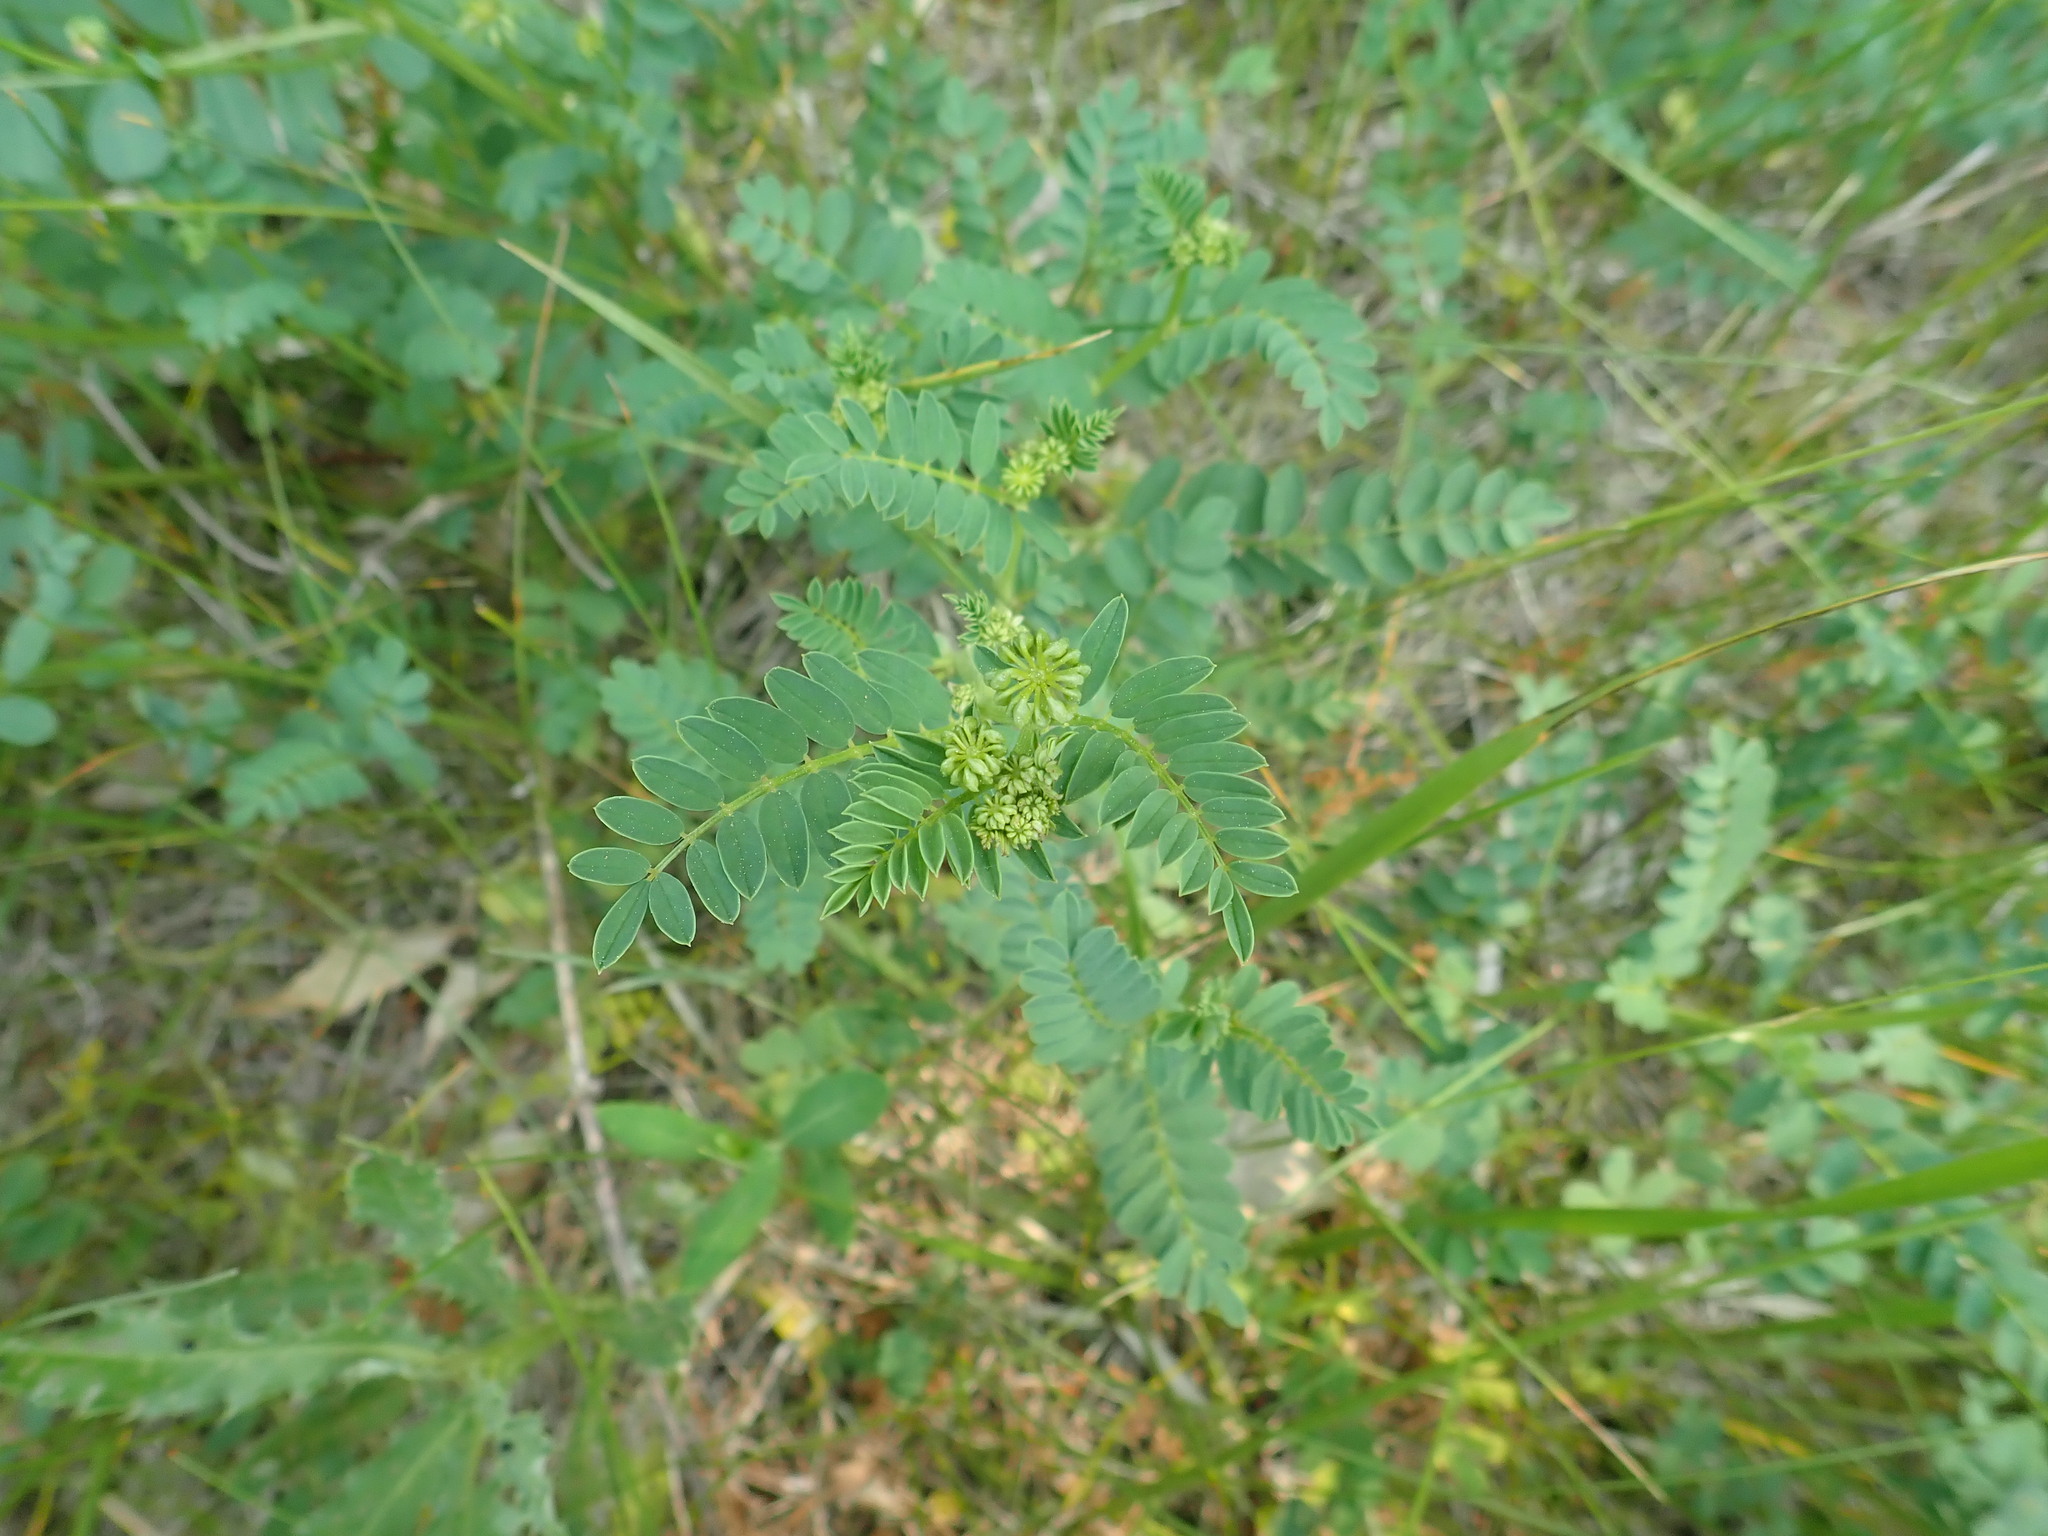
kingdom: Plantae
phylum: Tracheophyta
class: Magnoliopsida
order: Fabales
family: Fabaceae
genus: Coronilla
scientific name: Coronilla varia
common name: Crownvetch
